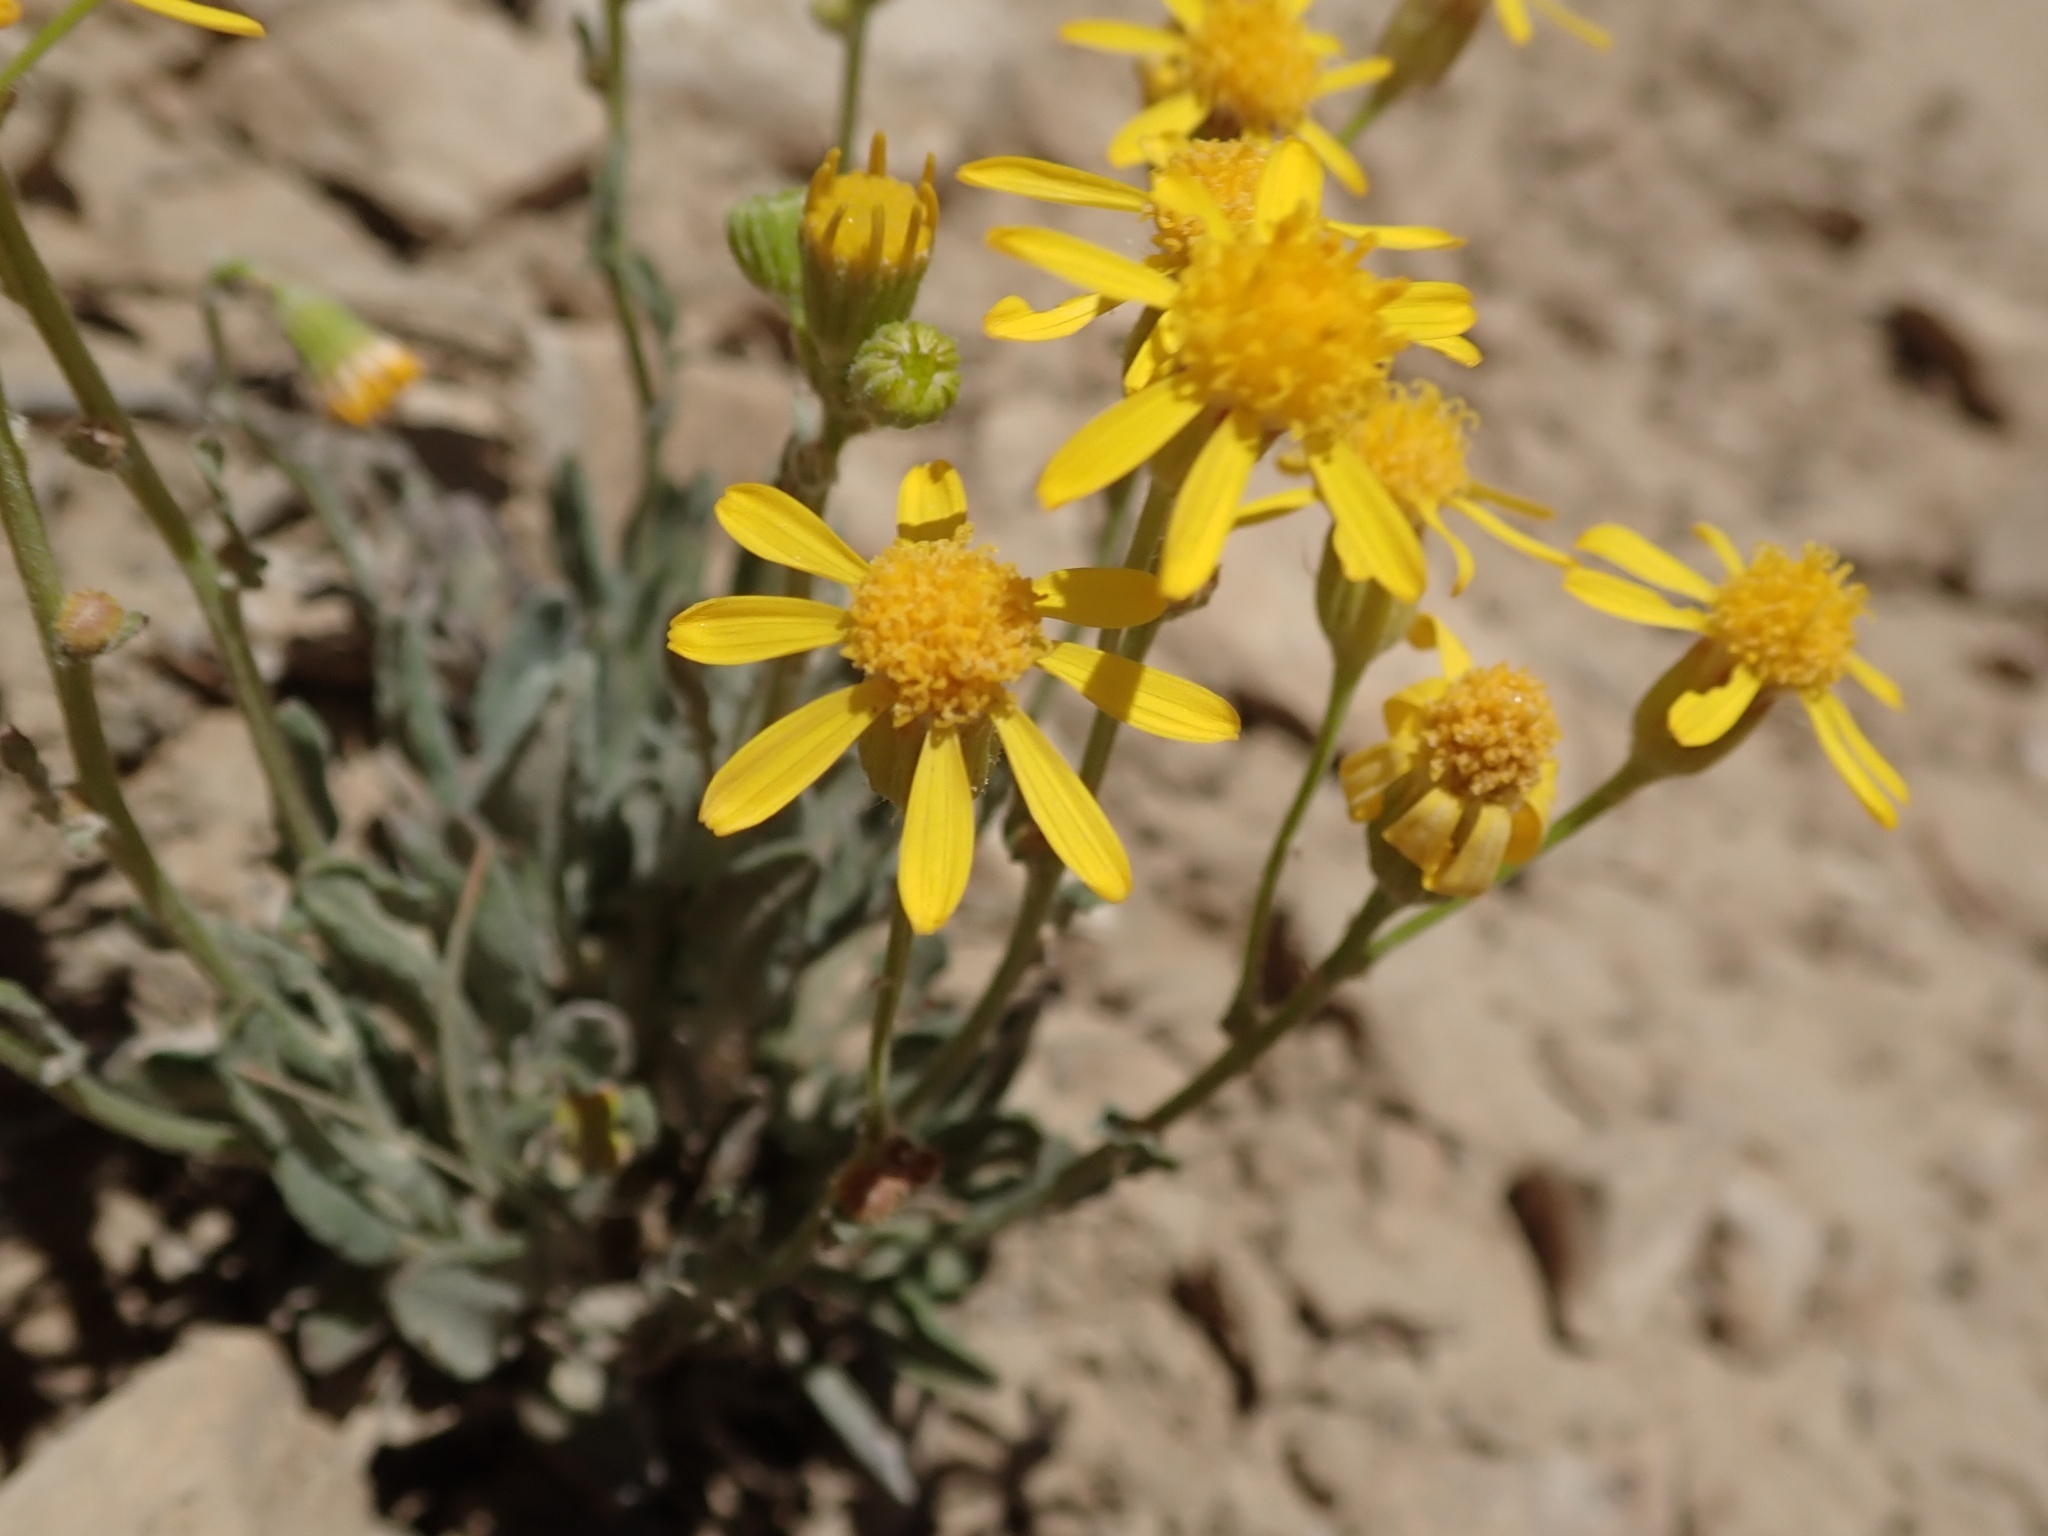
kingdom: Plantae
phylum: Tracheophyta
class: Magnoliopsida
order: Asterales
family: Asteraceae
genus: Packera
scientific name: Packera cana
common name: Woolly groundsel
